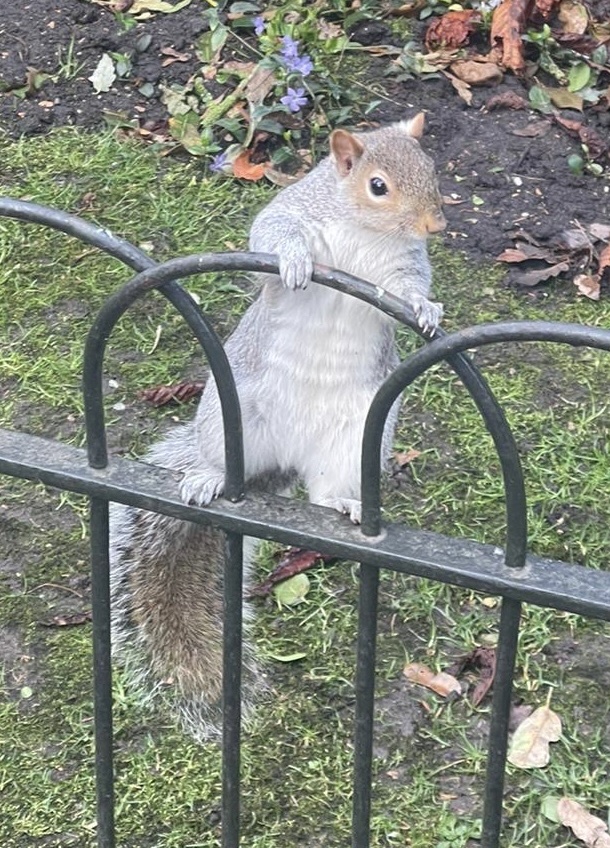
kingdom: Animalia
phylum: Chordata
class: Mammalia
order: Rodentia
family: Sciuridae
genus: Sciurus
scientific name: Sciurus carolinensis
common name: Eastern gray squirrel
